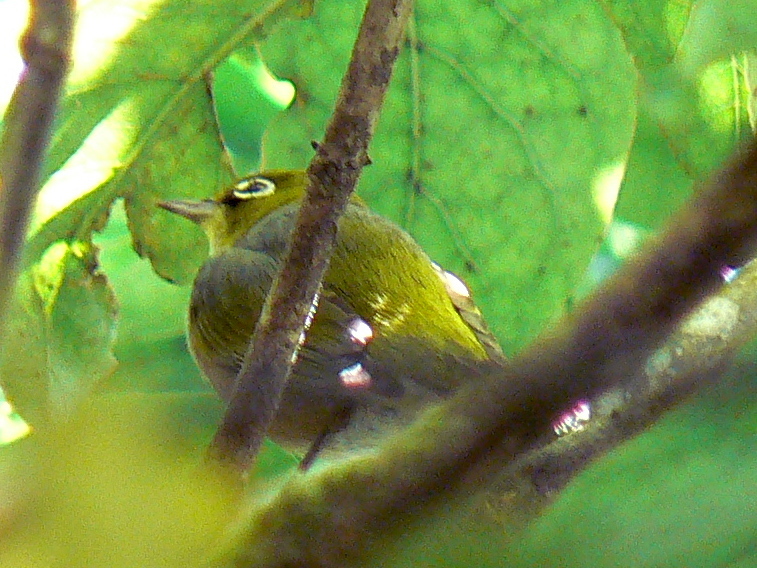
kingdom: Animalia
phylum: Chordata
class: Aves
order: Passeriformes
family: Zosteropidae
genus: Zosterops
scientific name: Zosterops lateralis
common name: Silvereye
